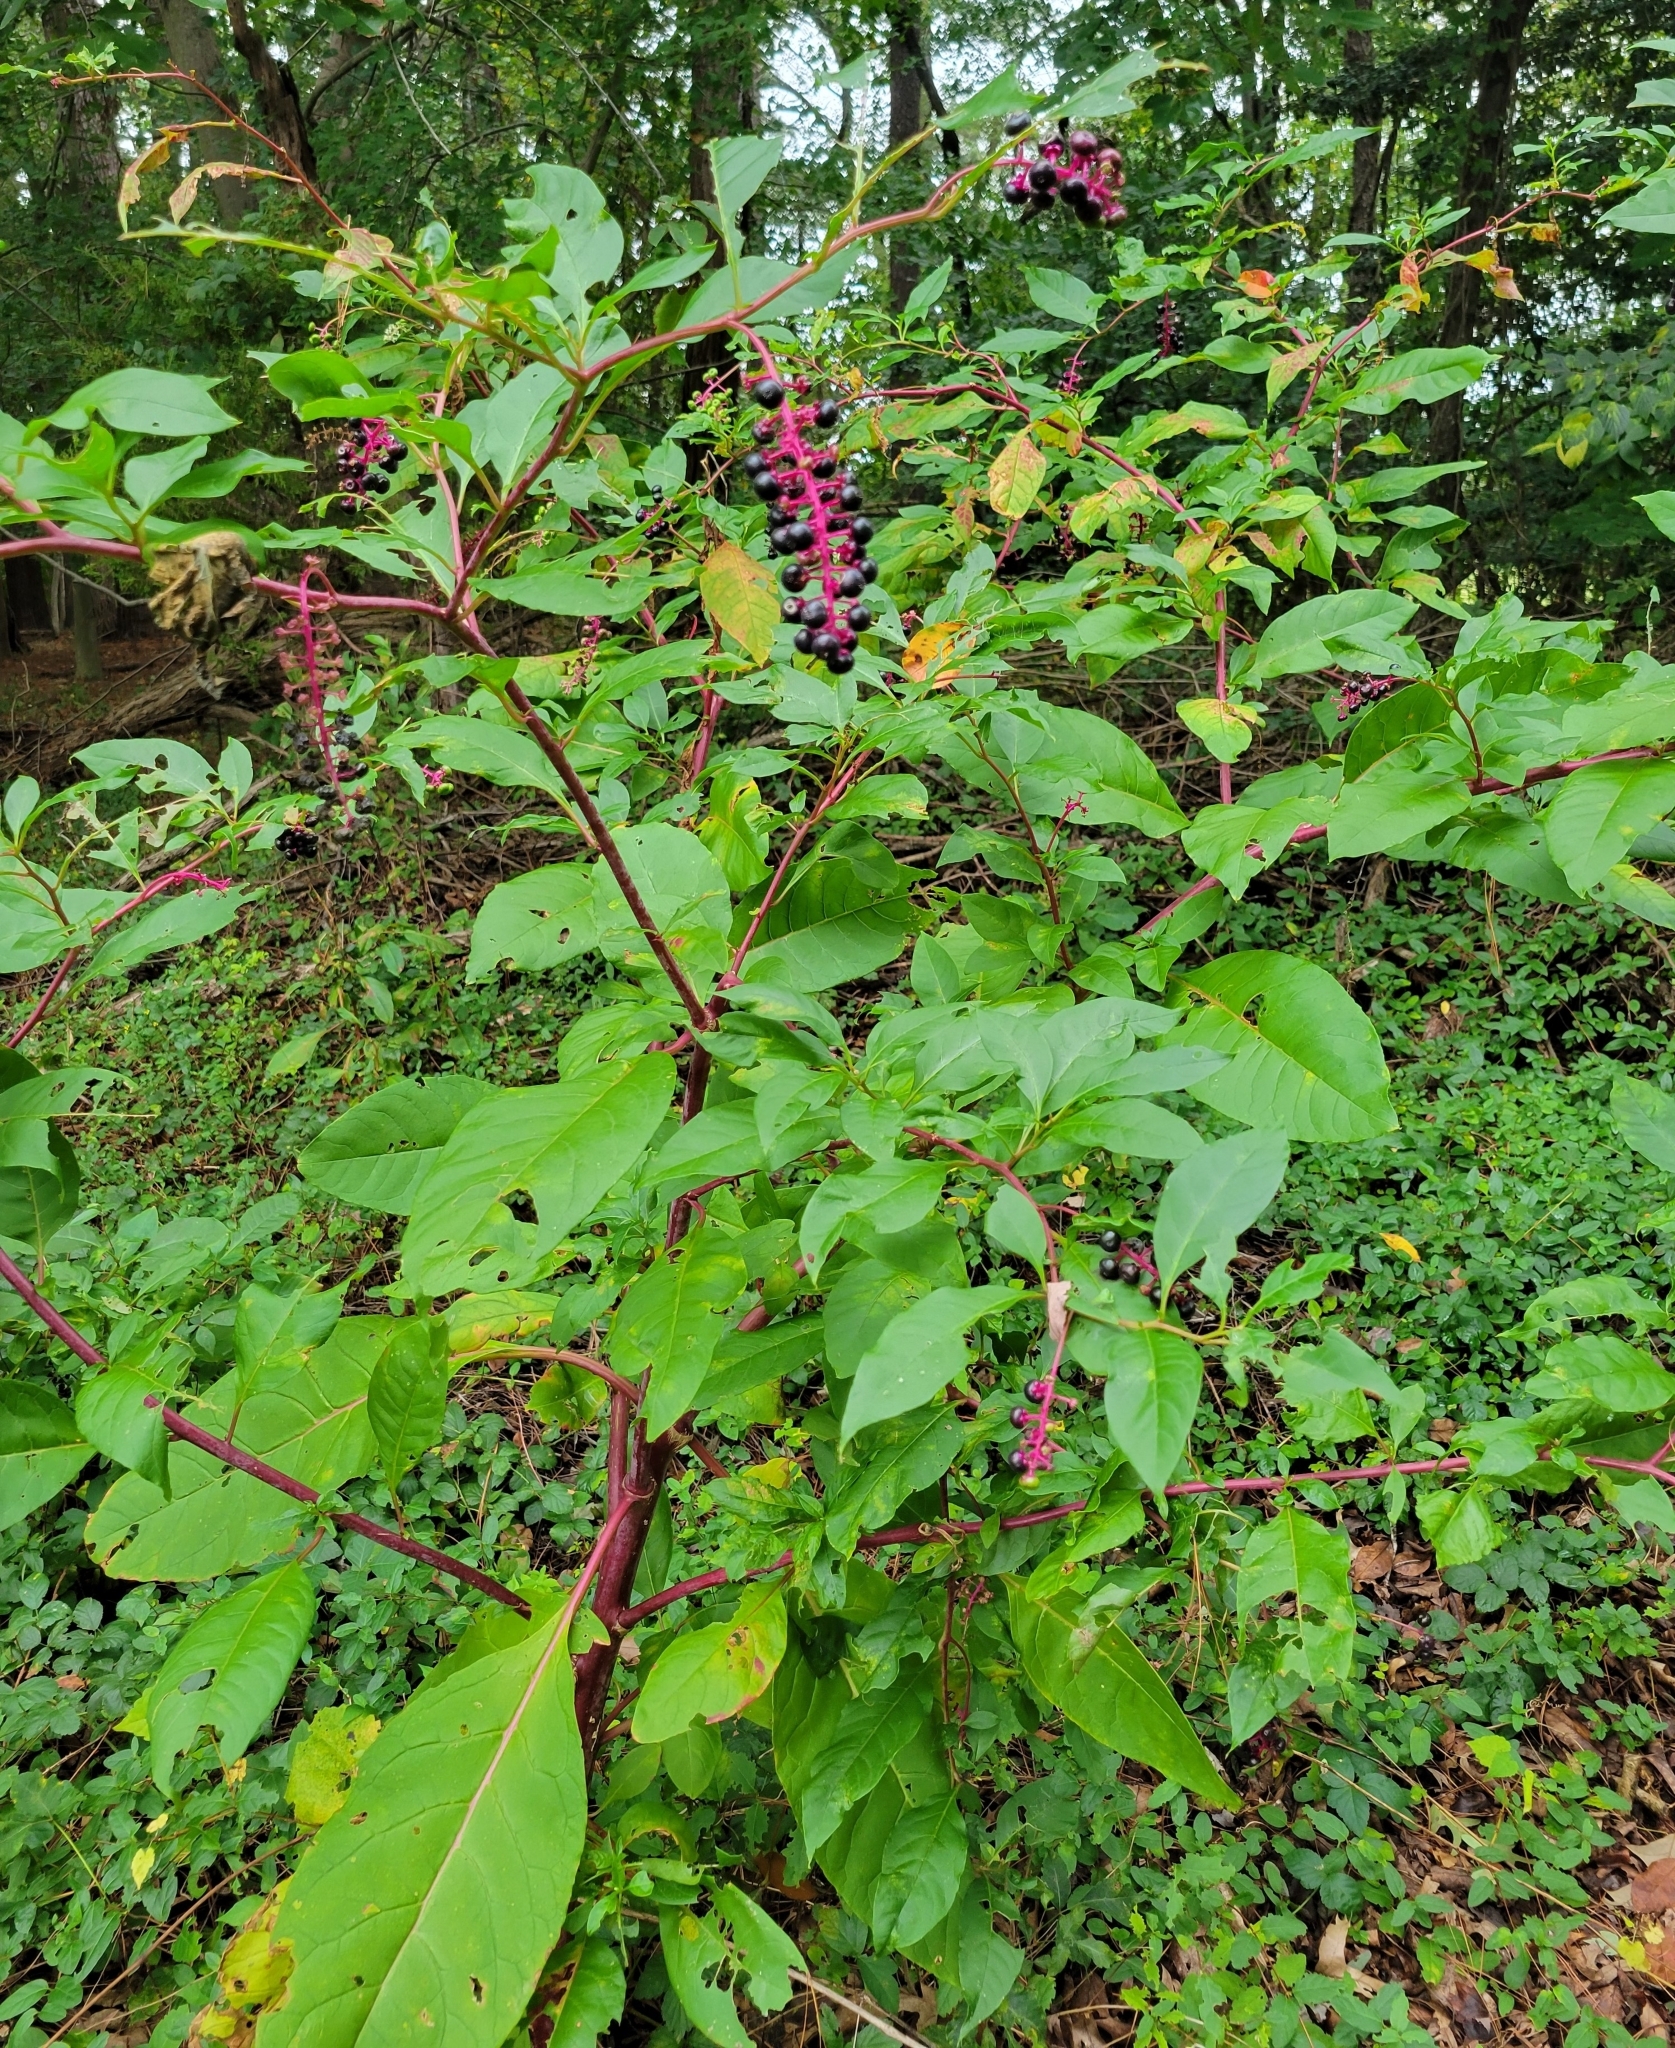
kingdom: Plantae
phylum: Tracheophyta
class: Magnoliopsida
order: Caryophyllales
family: Phytolaccaceae
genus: Phytolacca
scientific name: Phytolacca americana
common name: American pokeweed
